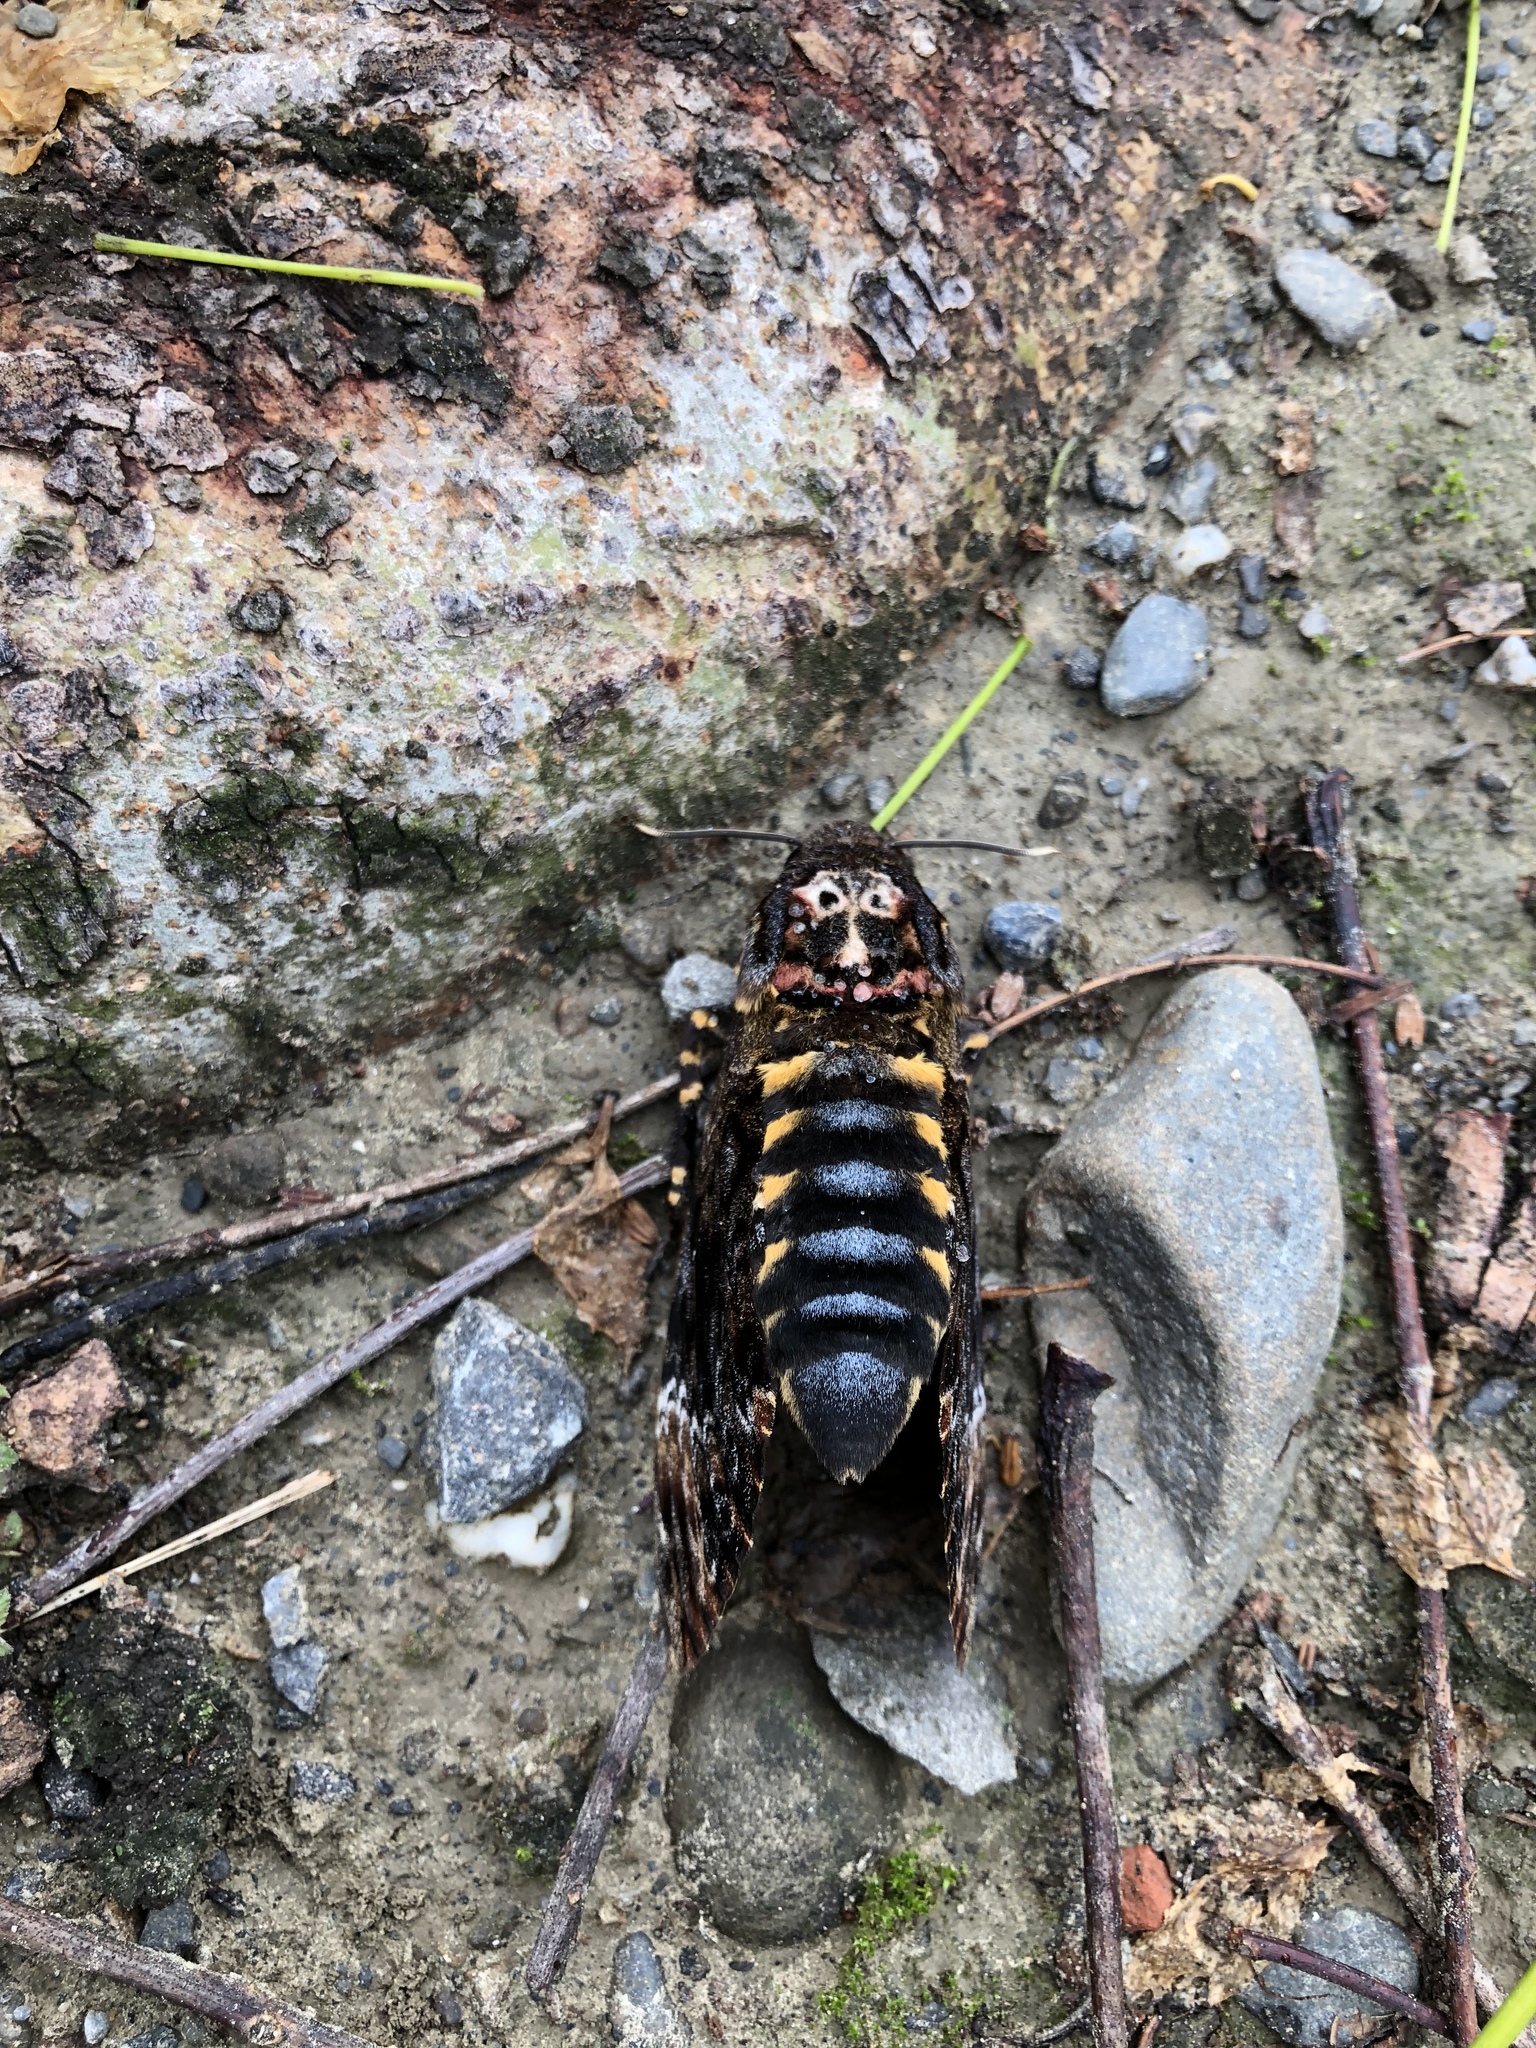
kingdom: Animalia
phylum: Arthropoda
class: Insecta
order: Lepidoptera
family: Sphingidae
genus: Acherontia
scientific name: Acherontia lachesis
